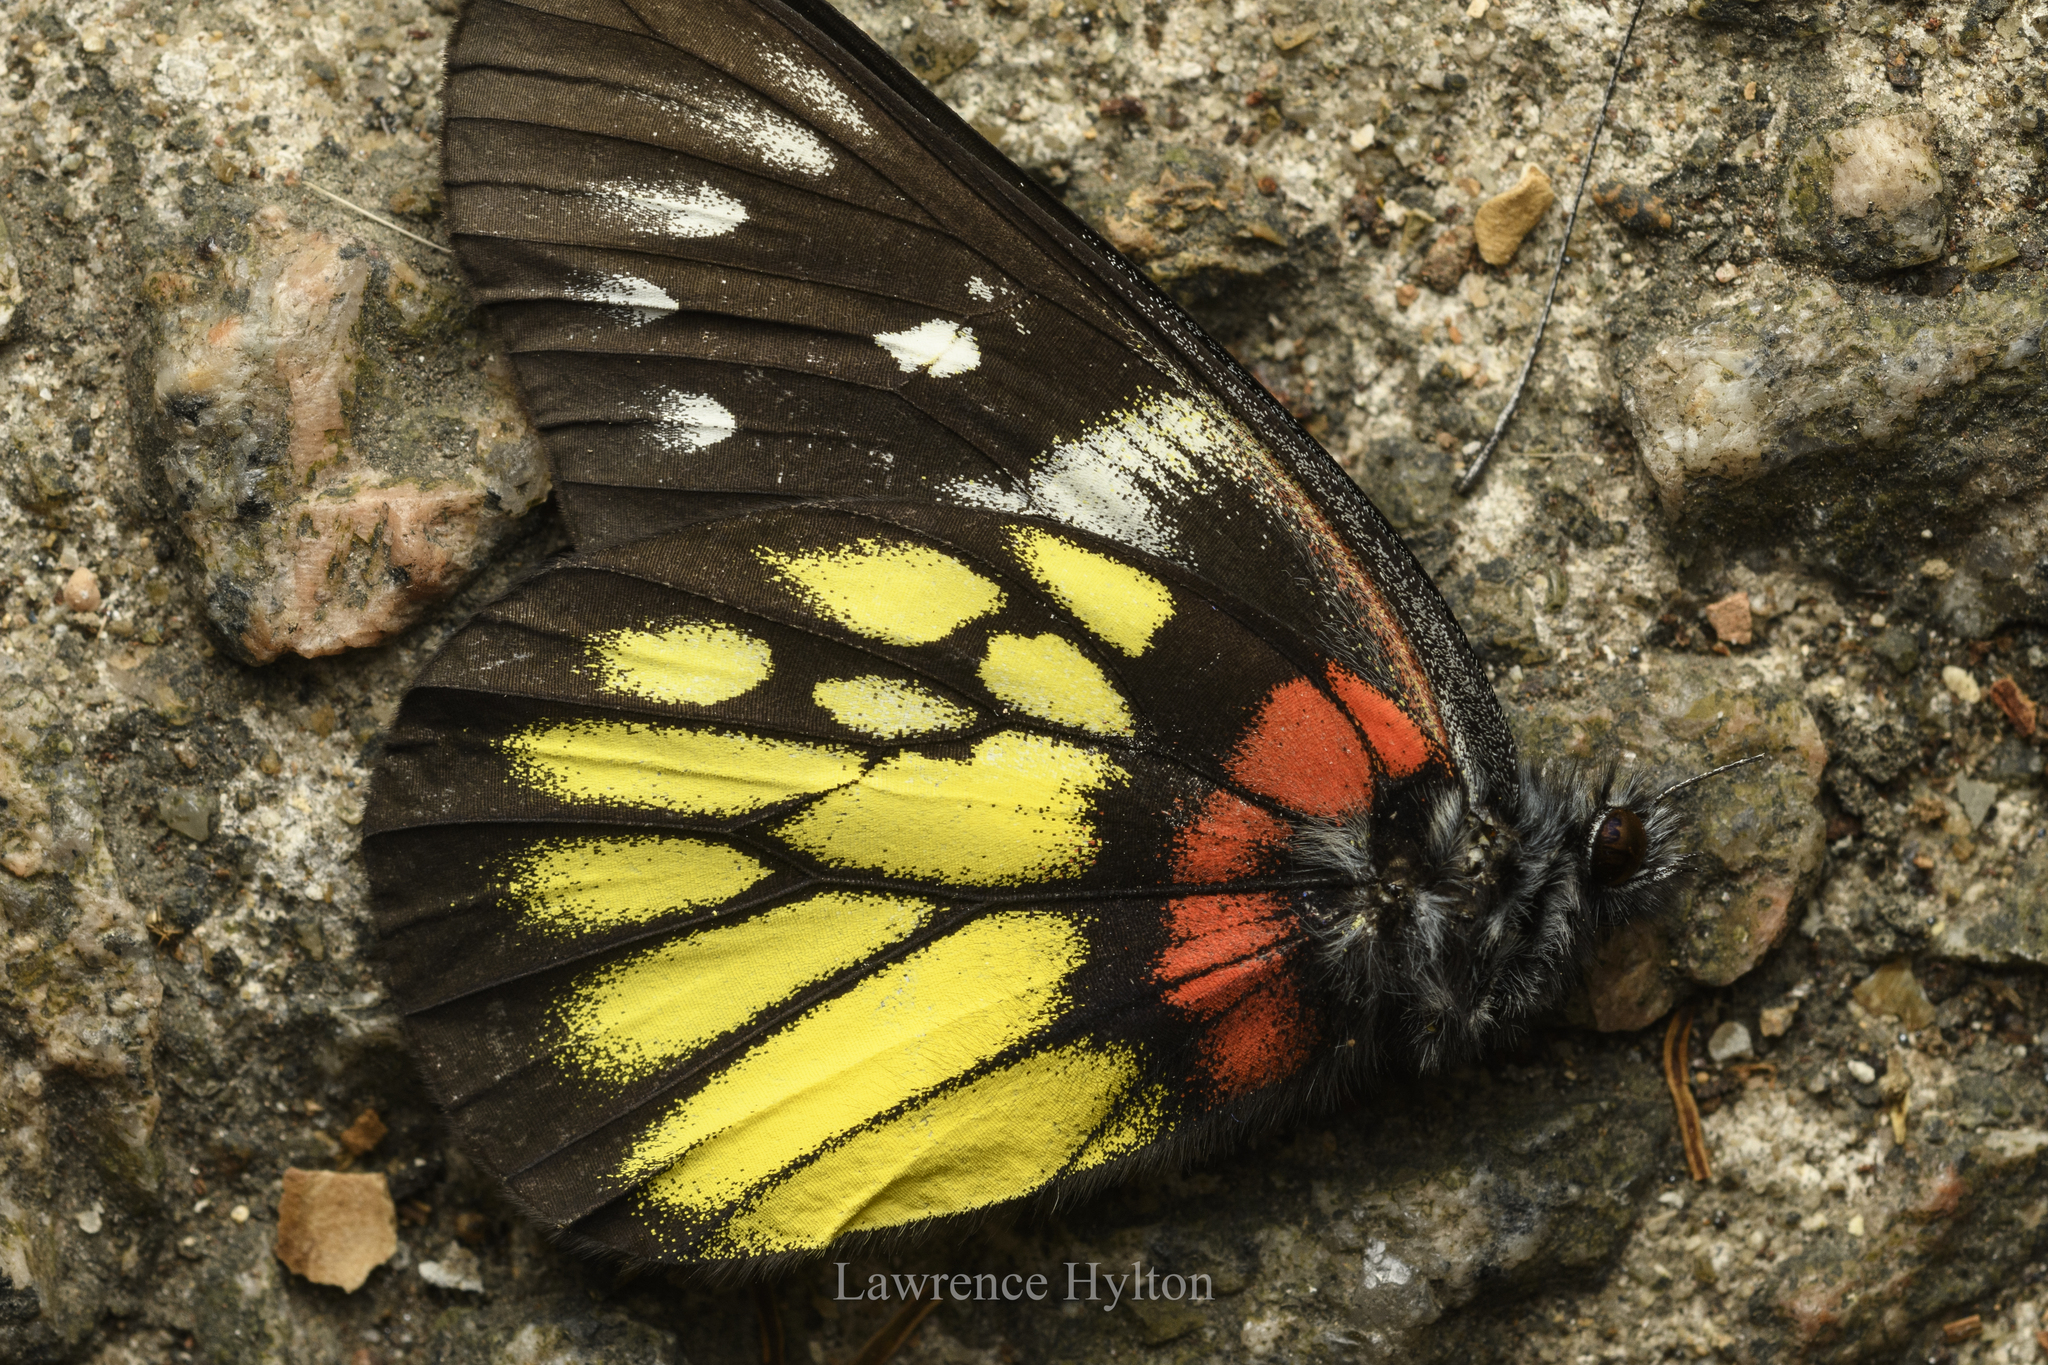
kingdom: Animalia
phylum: Arthropoda
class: Insecta
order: Lepidoptera
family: Pieridae
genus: Delias
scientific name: Delias pasithoe
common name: Red-base jezebel
